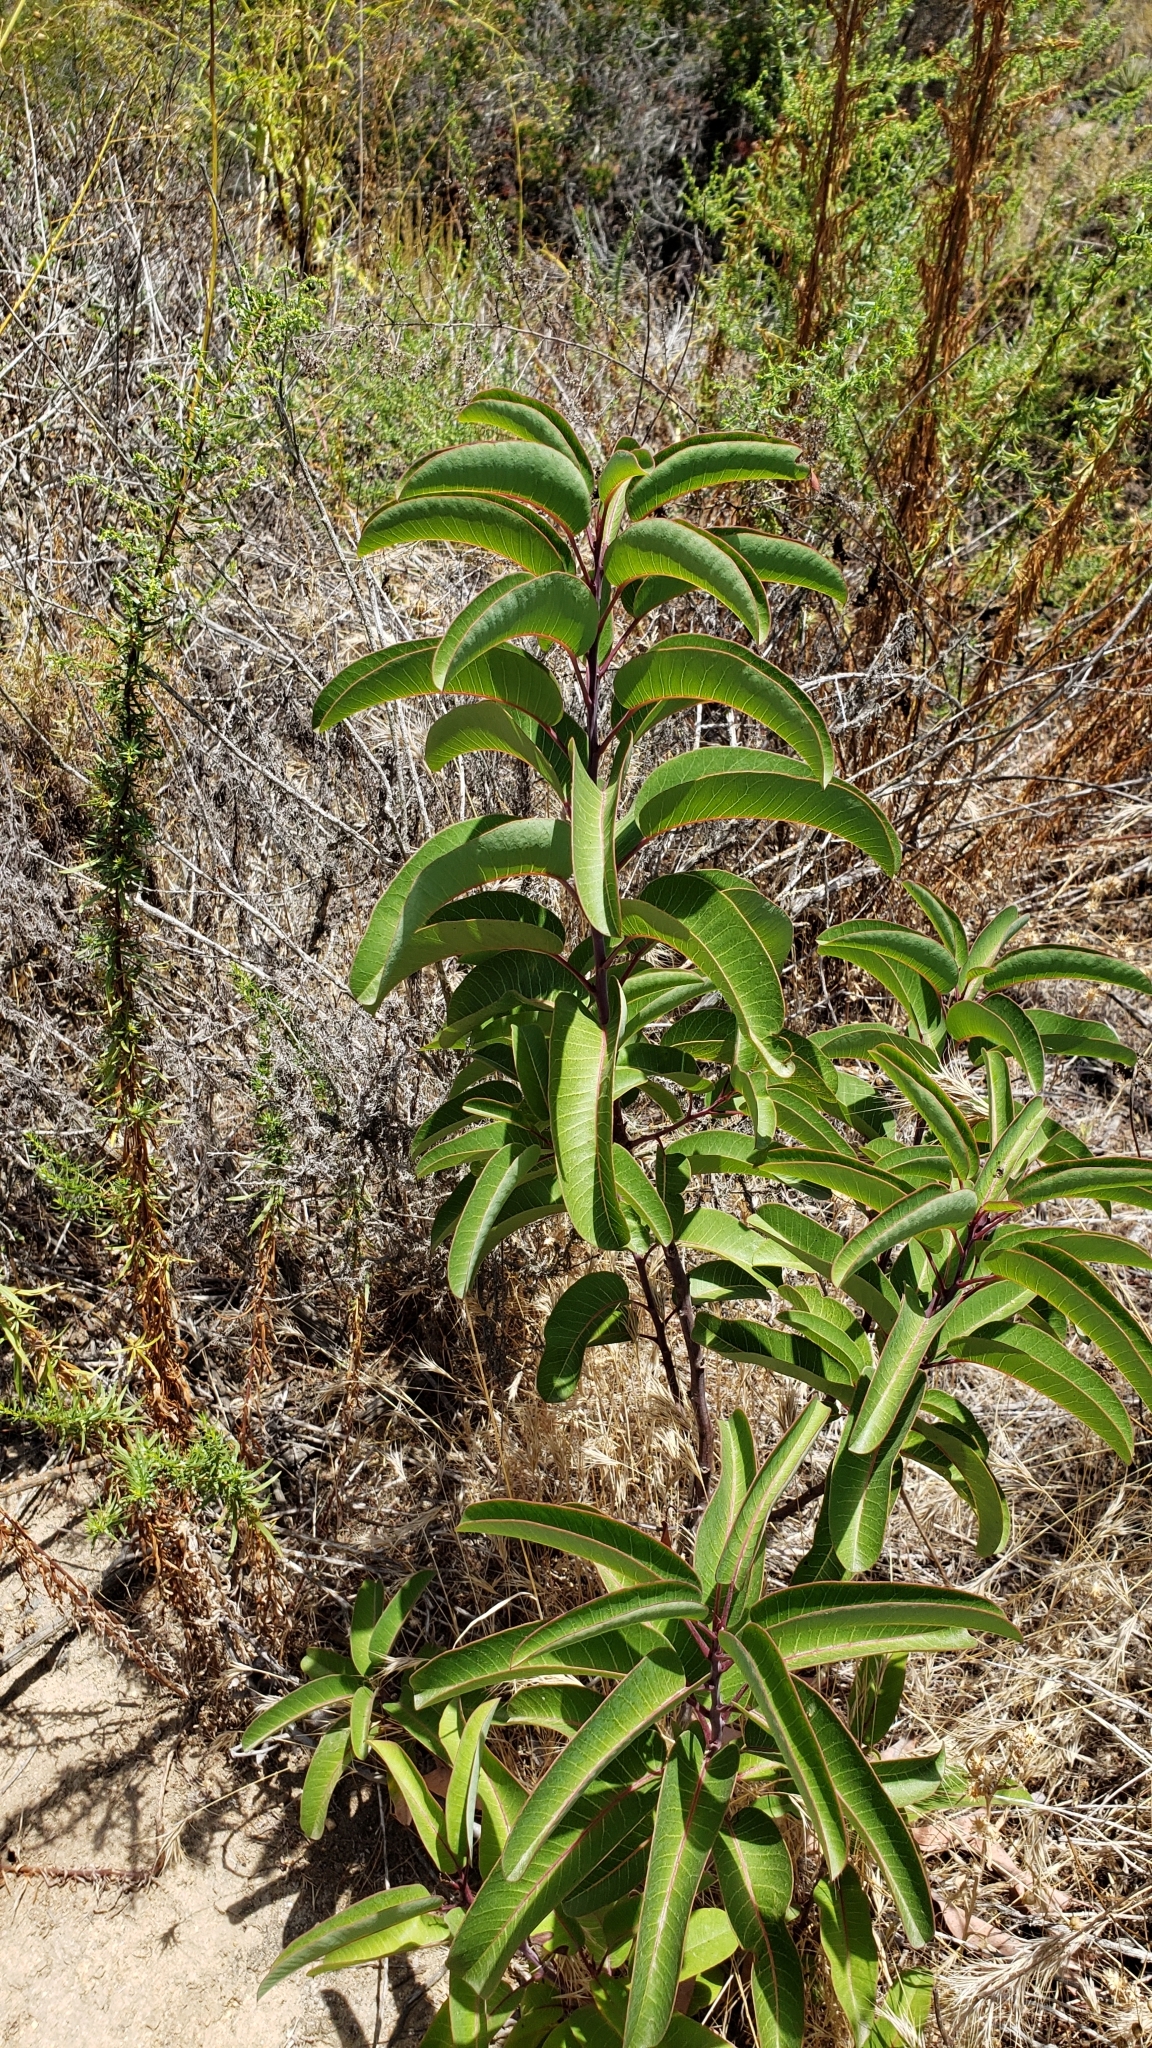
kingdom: Plantae
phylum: Tracheophyta
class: Magnoliopsida
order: Sapindales
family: Anacardiaceae
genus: Malosma
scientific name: Malosma laurina
